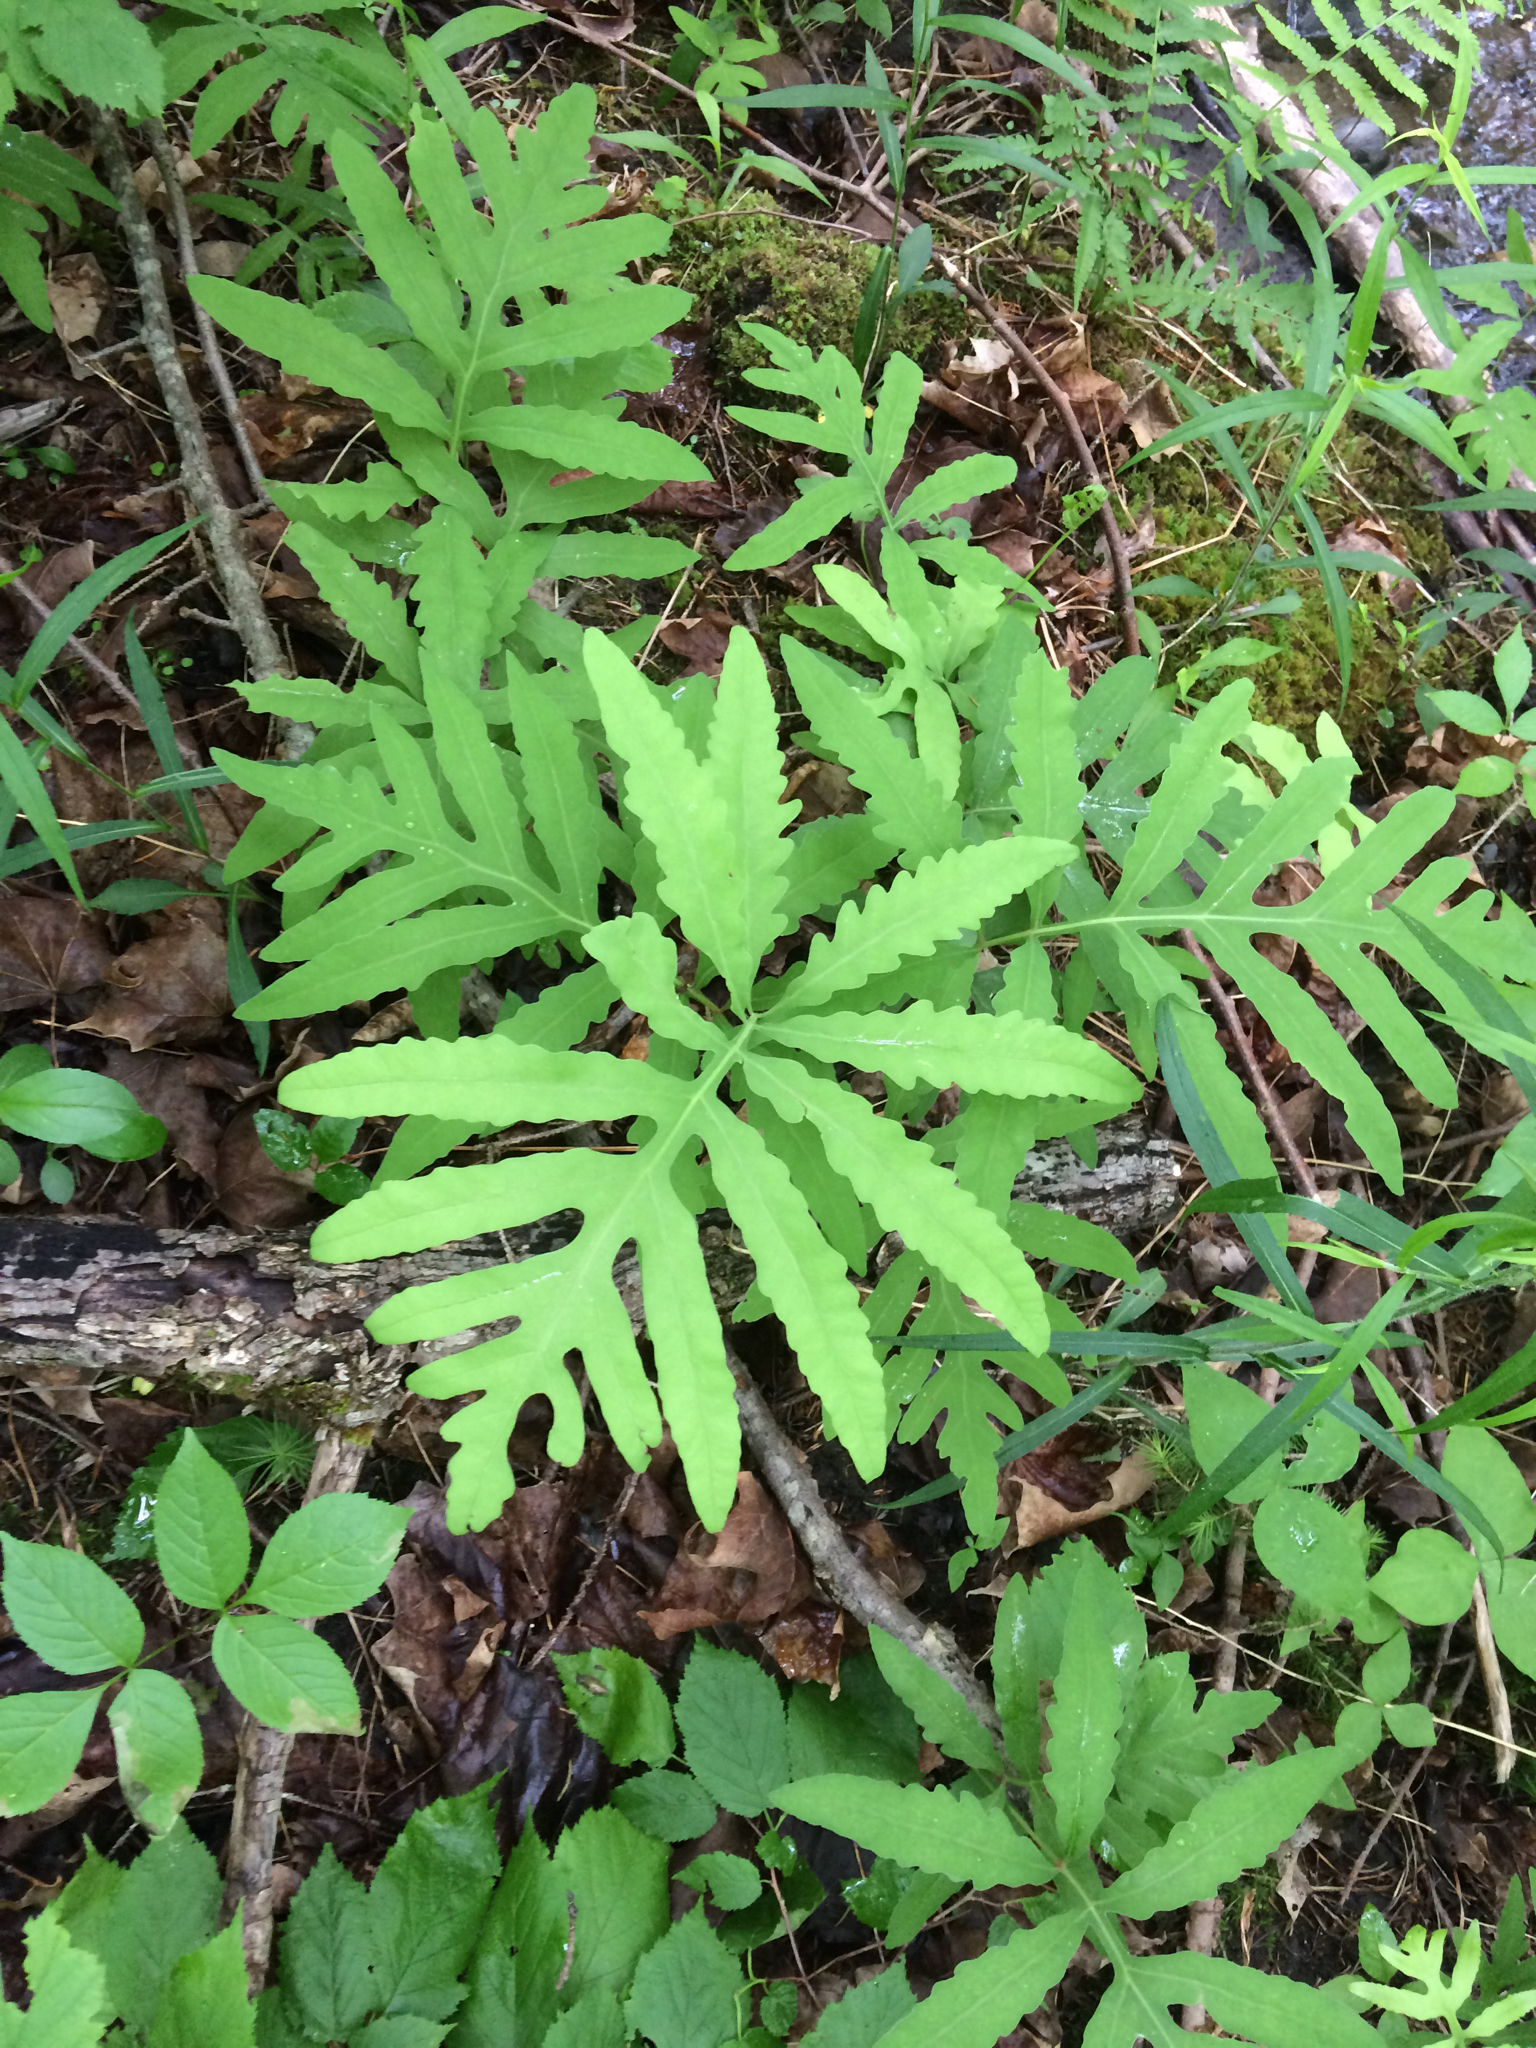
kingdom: Plantae
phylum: Tracheophyta
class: Polypodiopsida
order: Polypodiales
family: Onocleaceae
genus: Onoclea
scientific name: Onoclea sensibilis
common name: Sensitive fern
